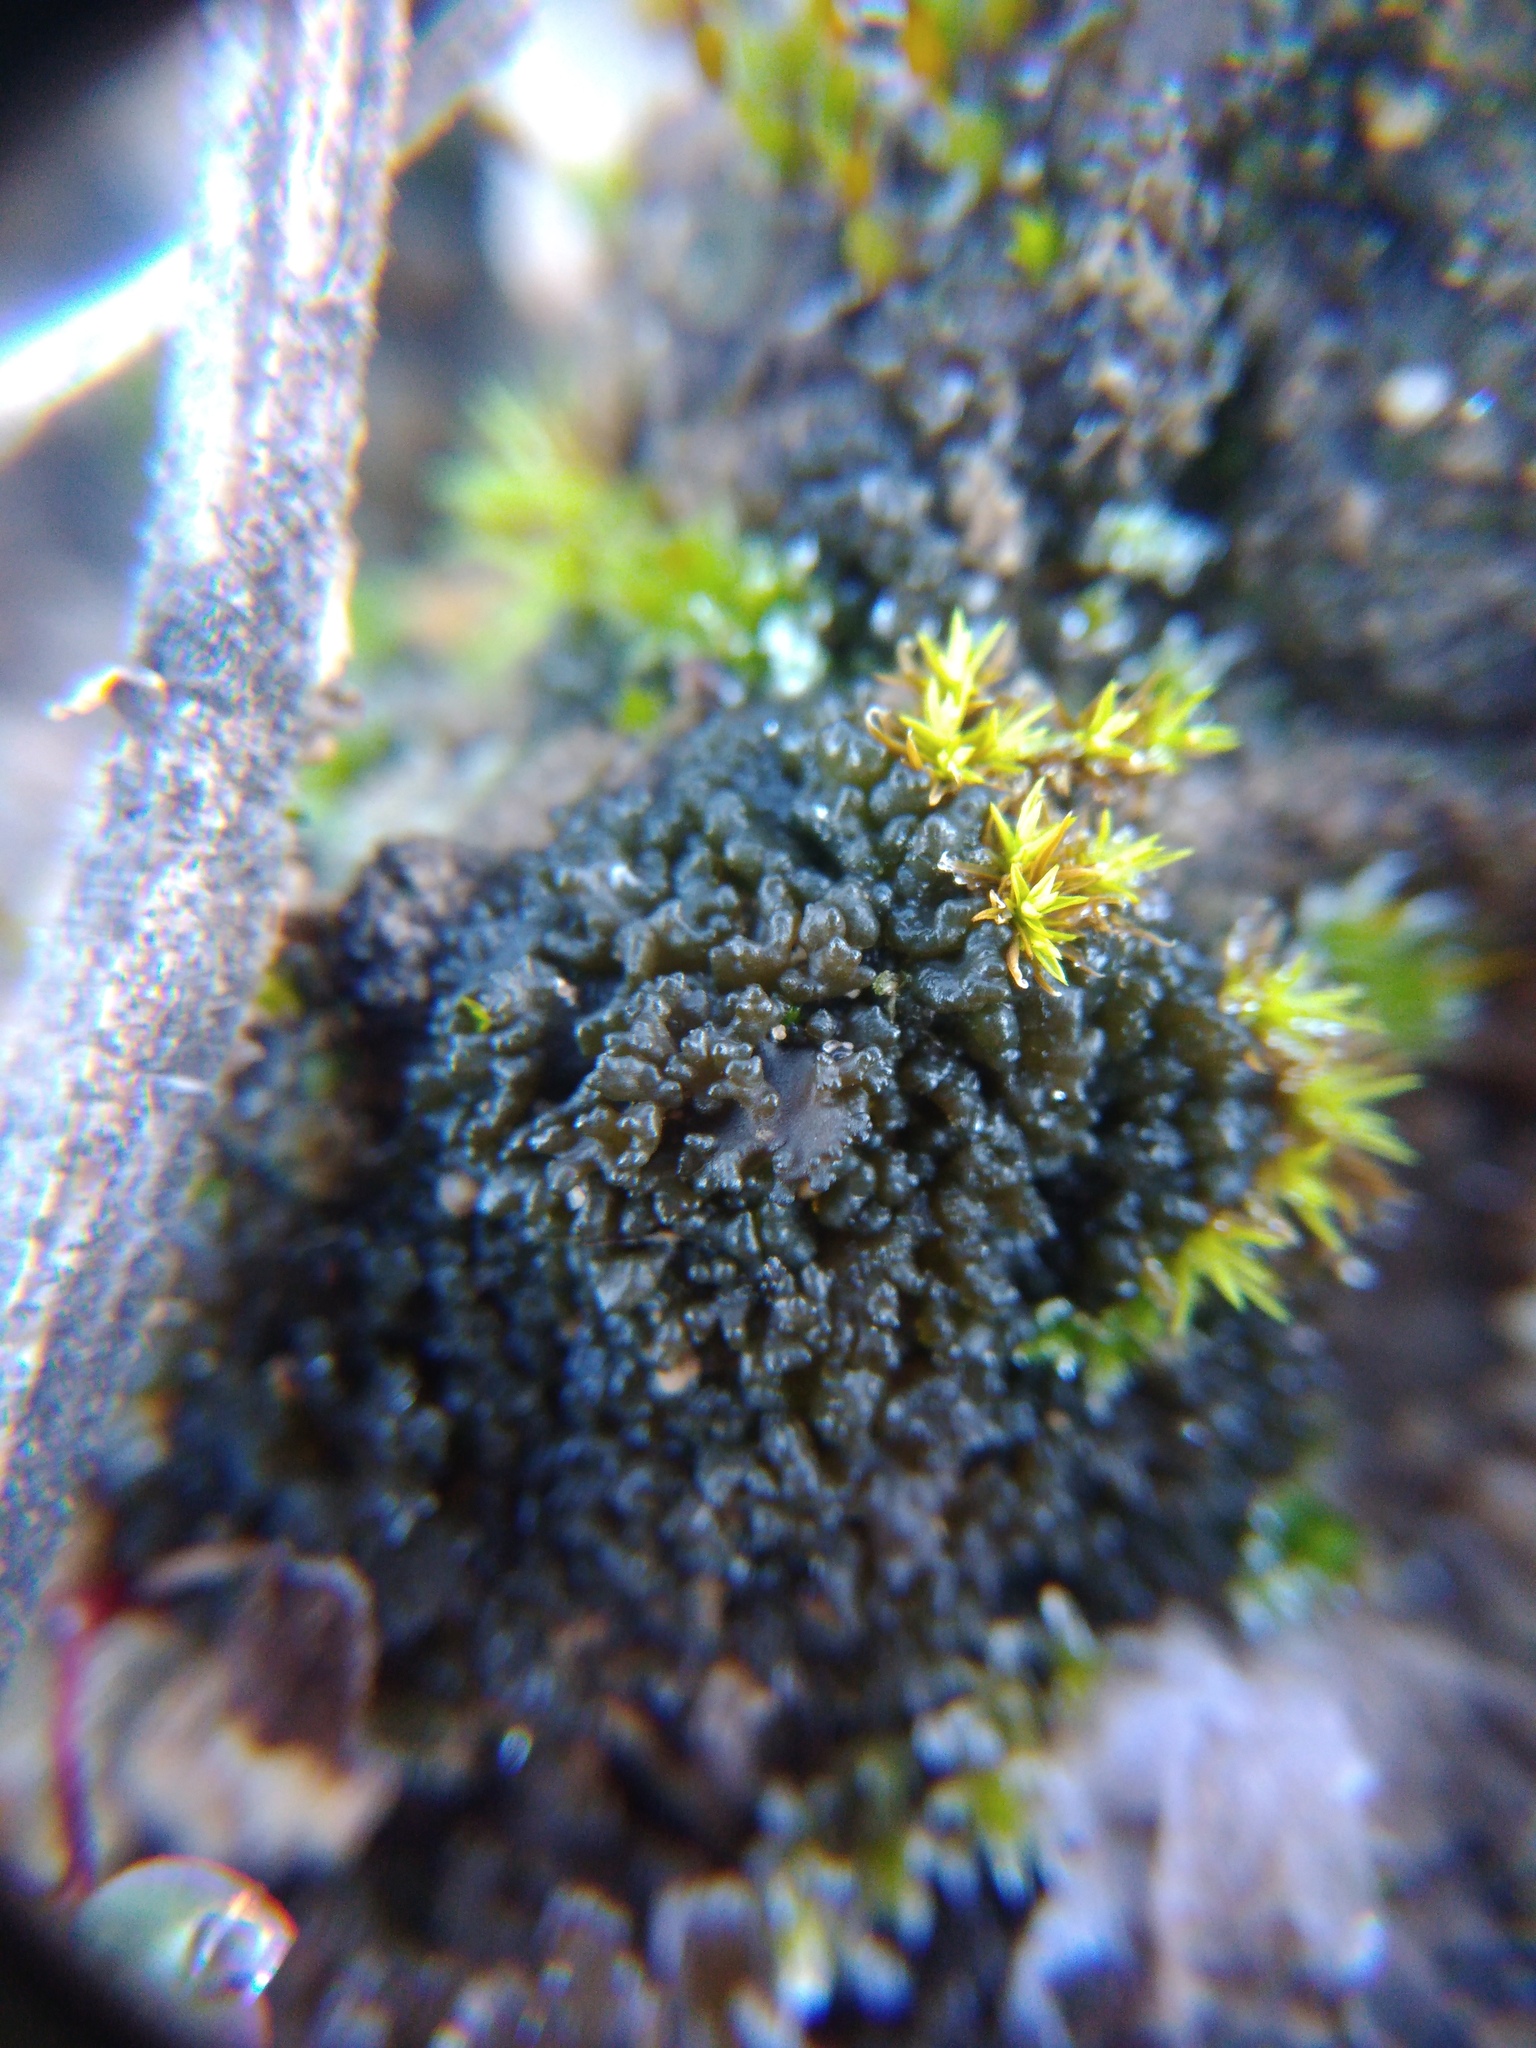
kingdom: Fungi
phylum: Ascomycota
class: Lecanoromycetes
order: Peltigerales
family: Collemataceae
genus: Enchylium
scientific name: Enchylium tenax
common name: Jelly lichen
